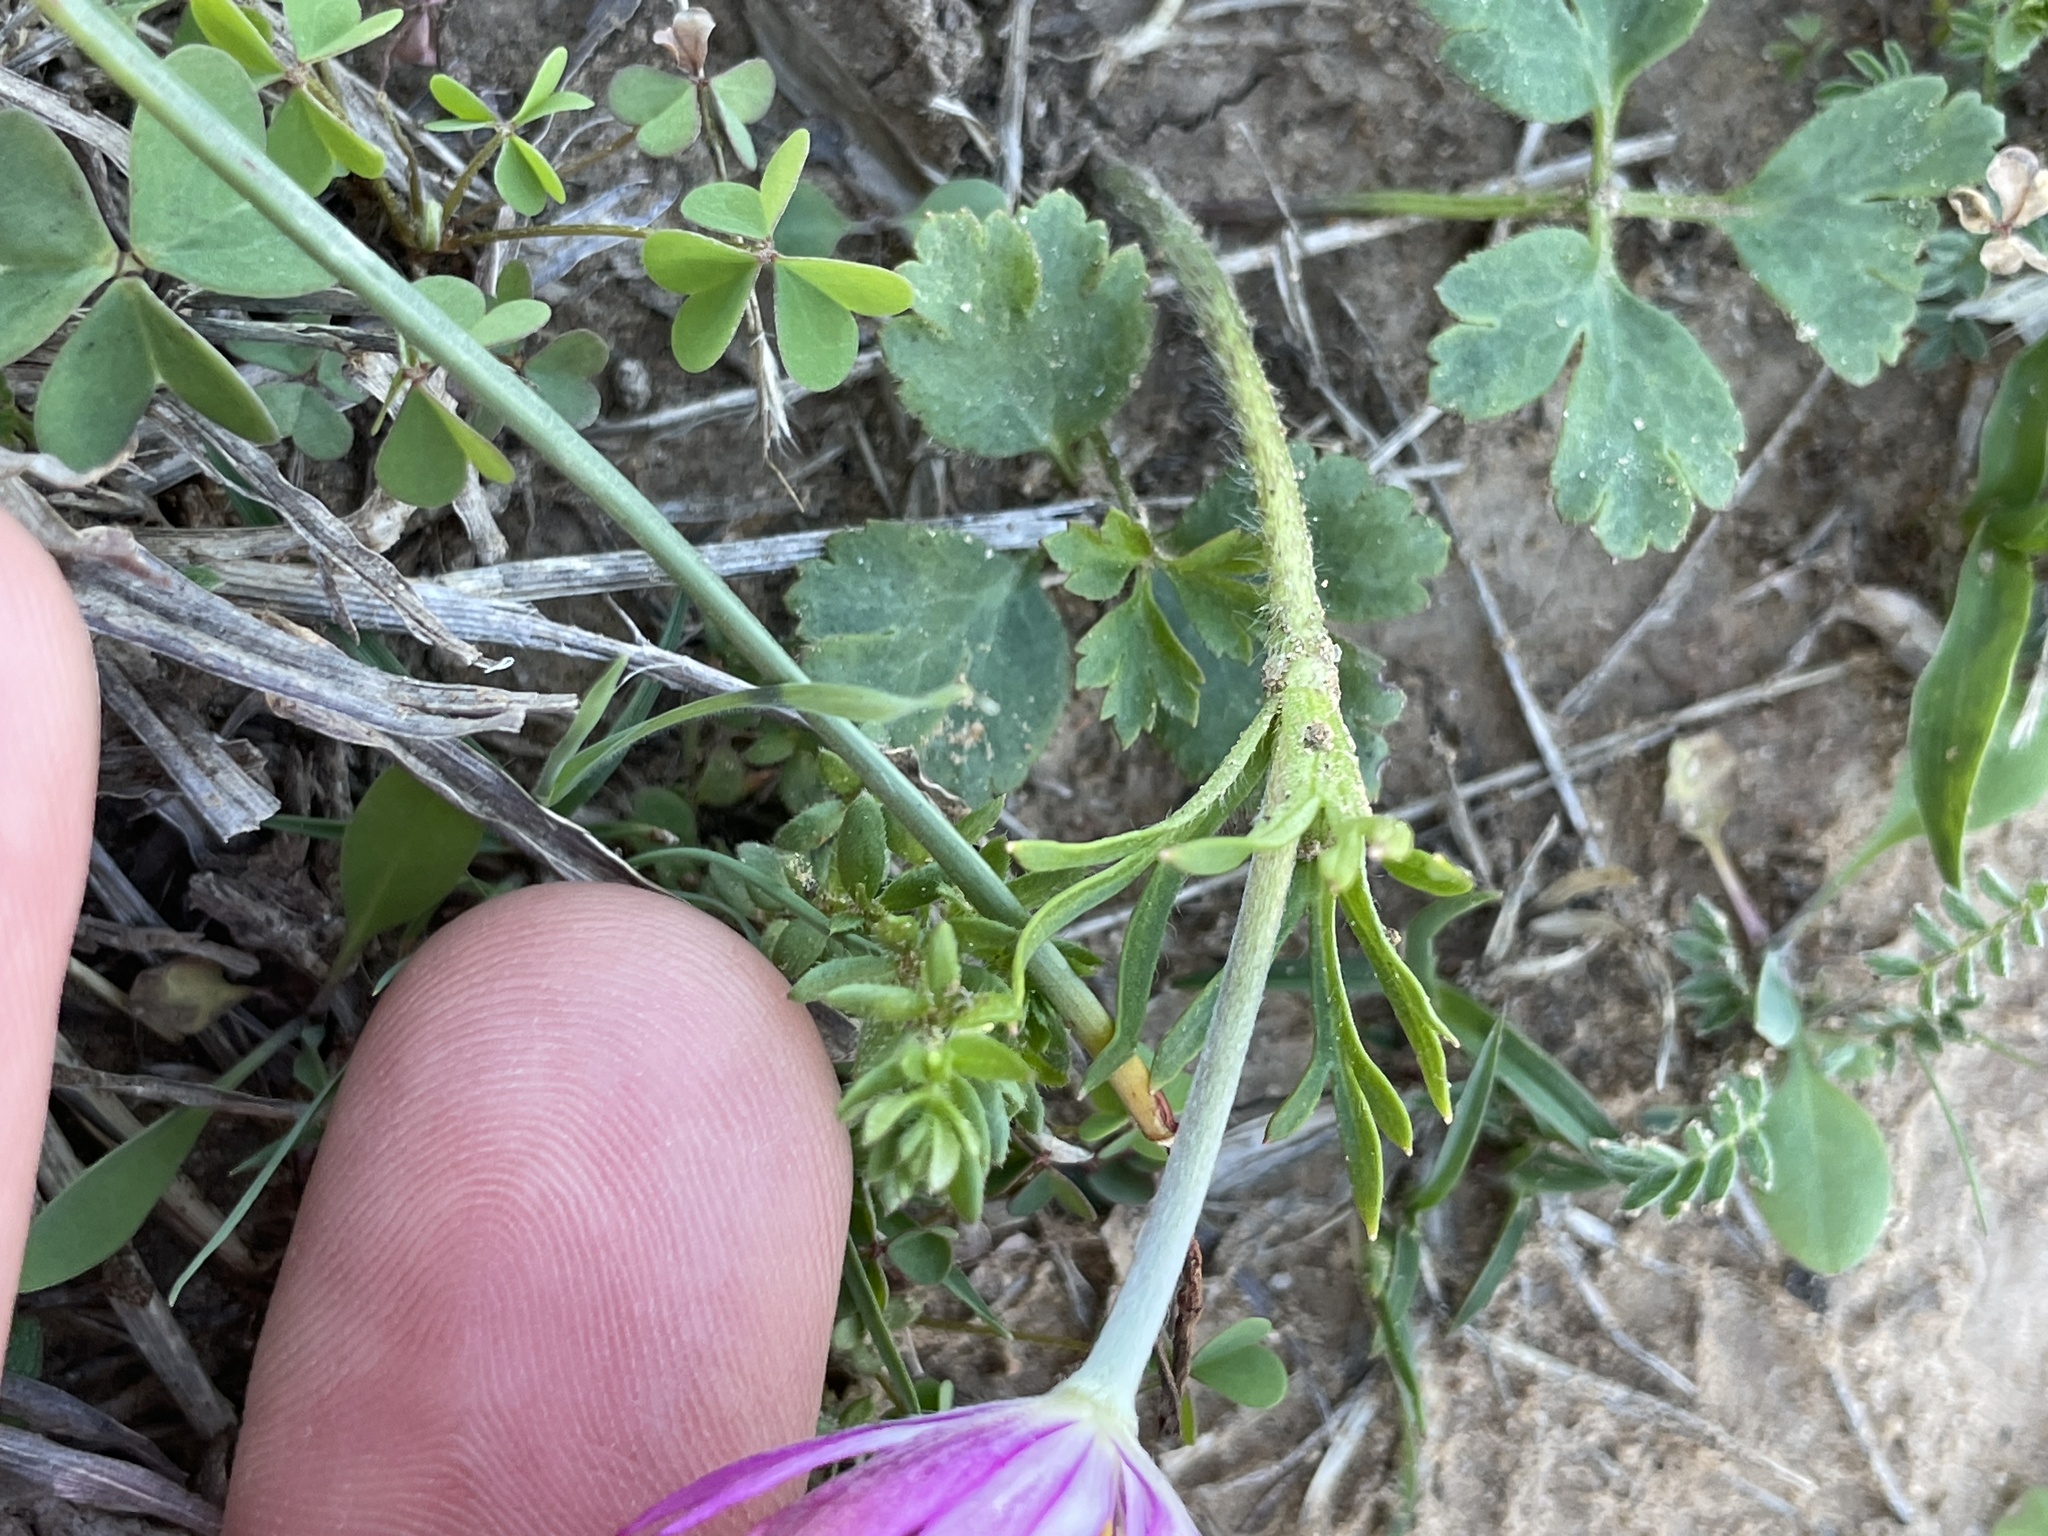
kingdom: Plantae
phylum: Tracheophyta
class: Magnoliopsida
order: Ranunculales
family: Ranunculaceae
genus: Anemone
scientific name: Anemone berlandieri
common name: Ten-petal anemone
